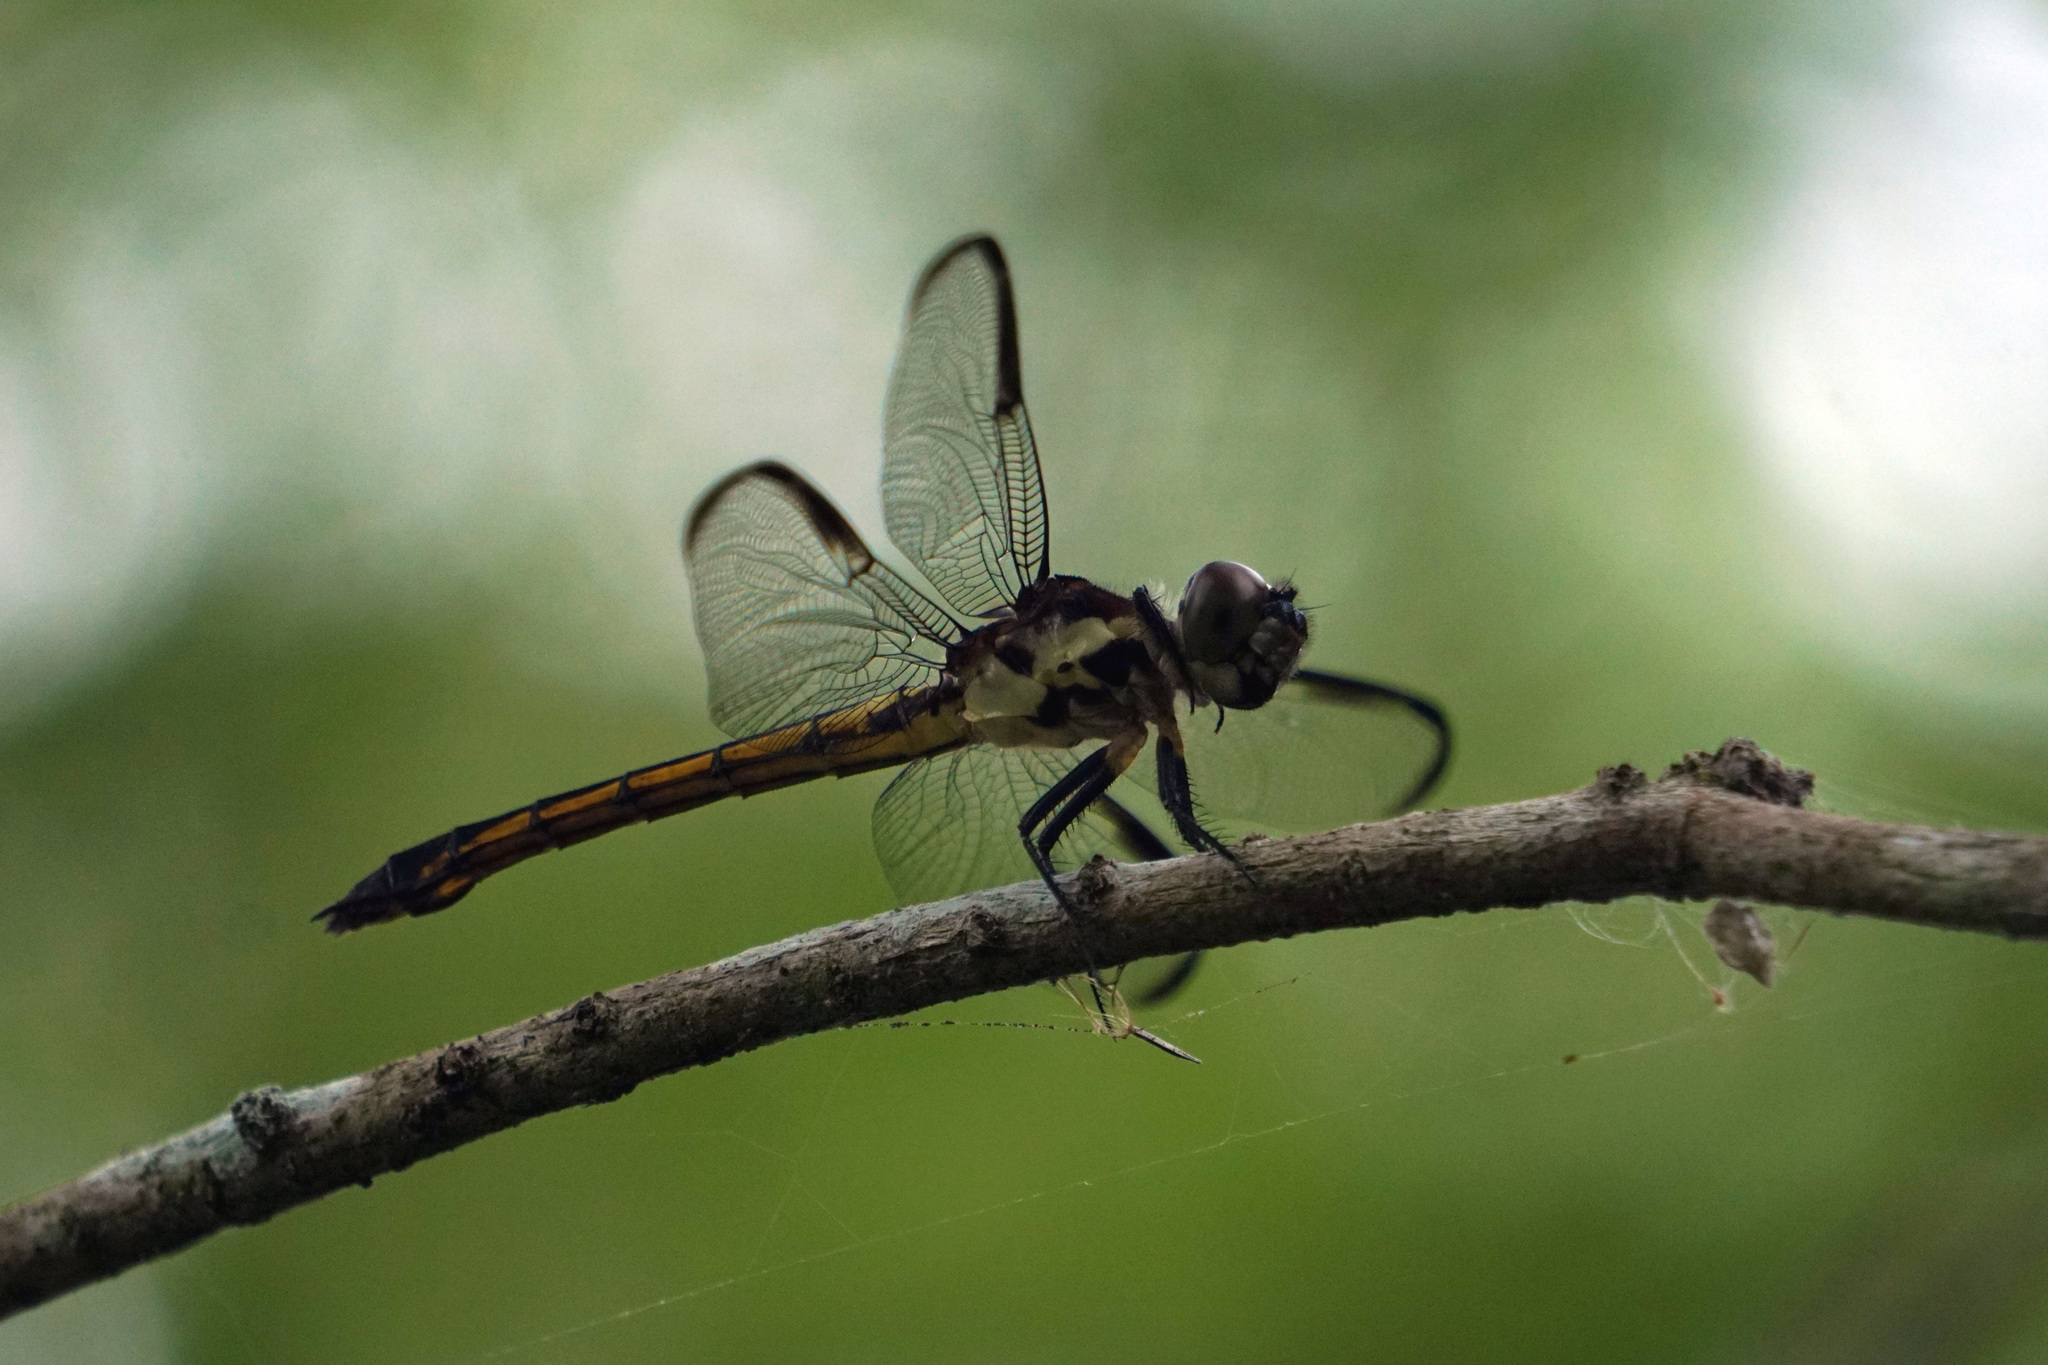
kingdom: Animalia
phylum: Arthropoda
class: Insecta
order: Odonata
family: Libellulidae
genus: Libellula
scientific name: Libellula incesta
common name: Slaty skimmer
